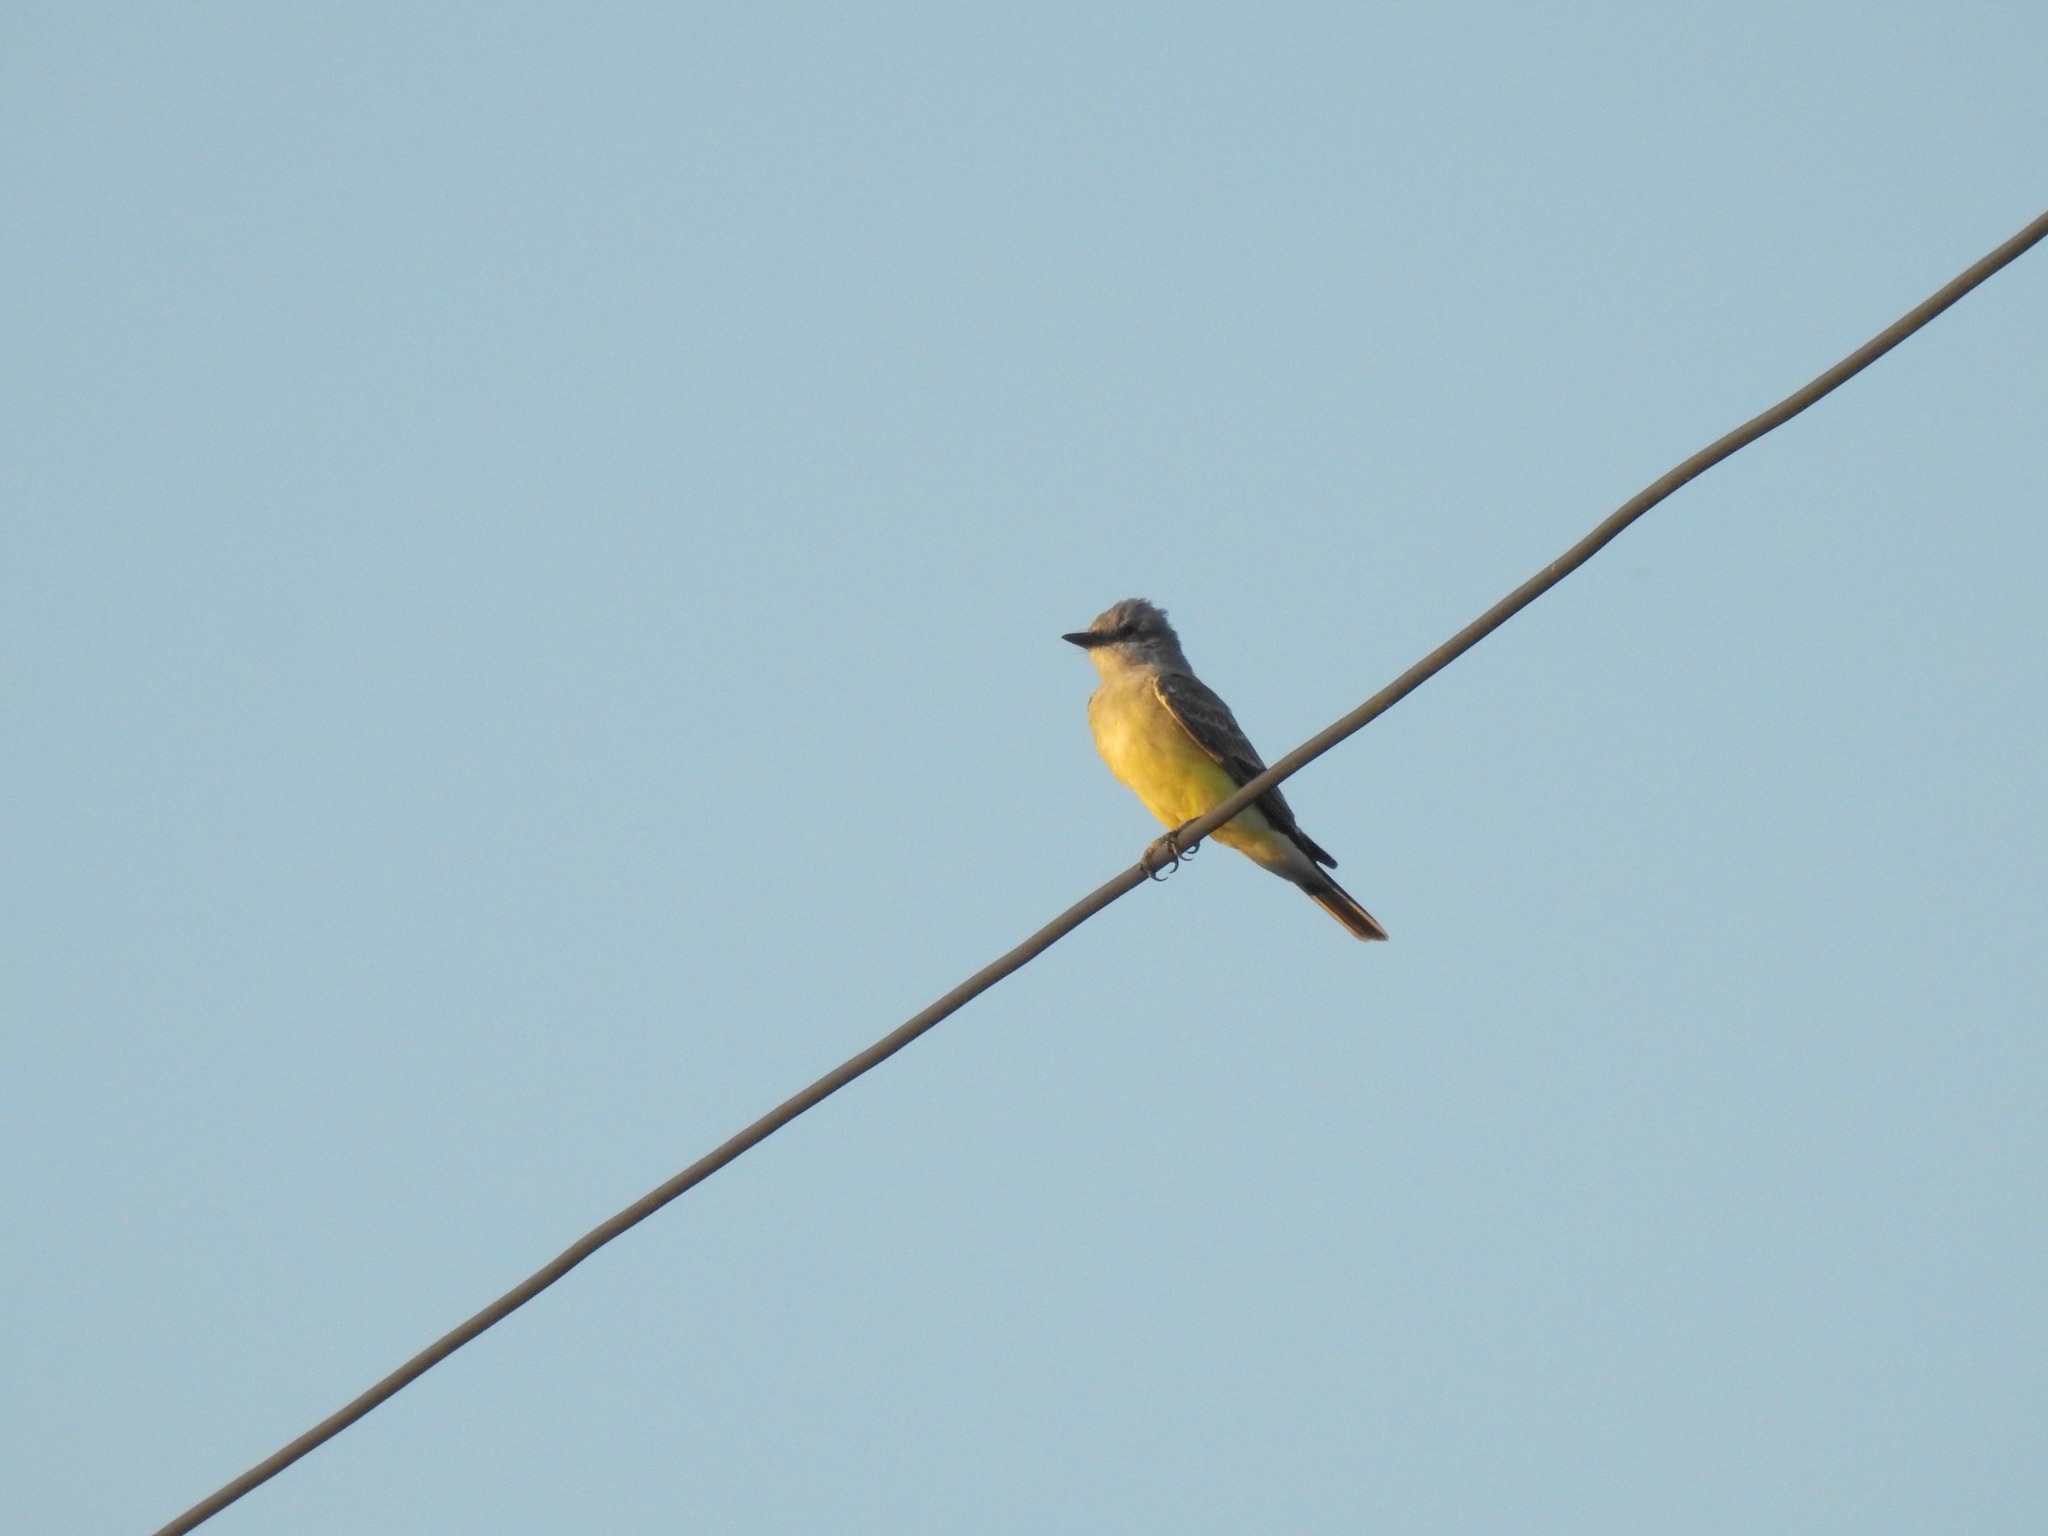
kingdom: Animalia
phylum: Chordata
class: Aves
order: Passeriformes
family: Tyrannidae
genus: Tyrannus
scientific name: Tyrannus verticalis
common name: Western kingbird
